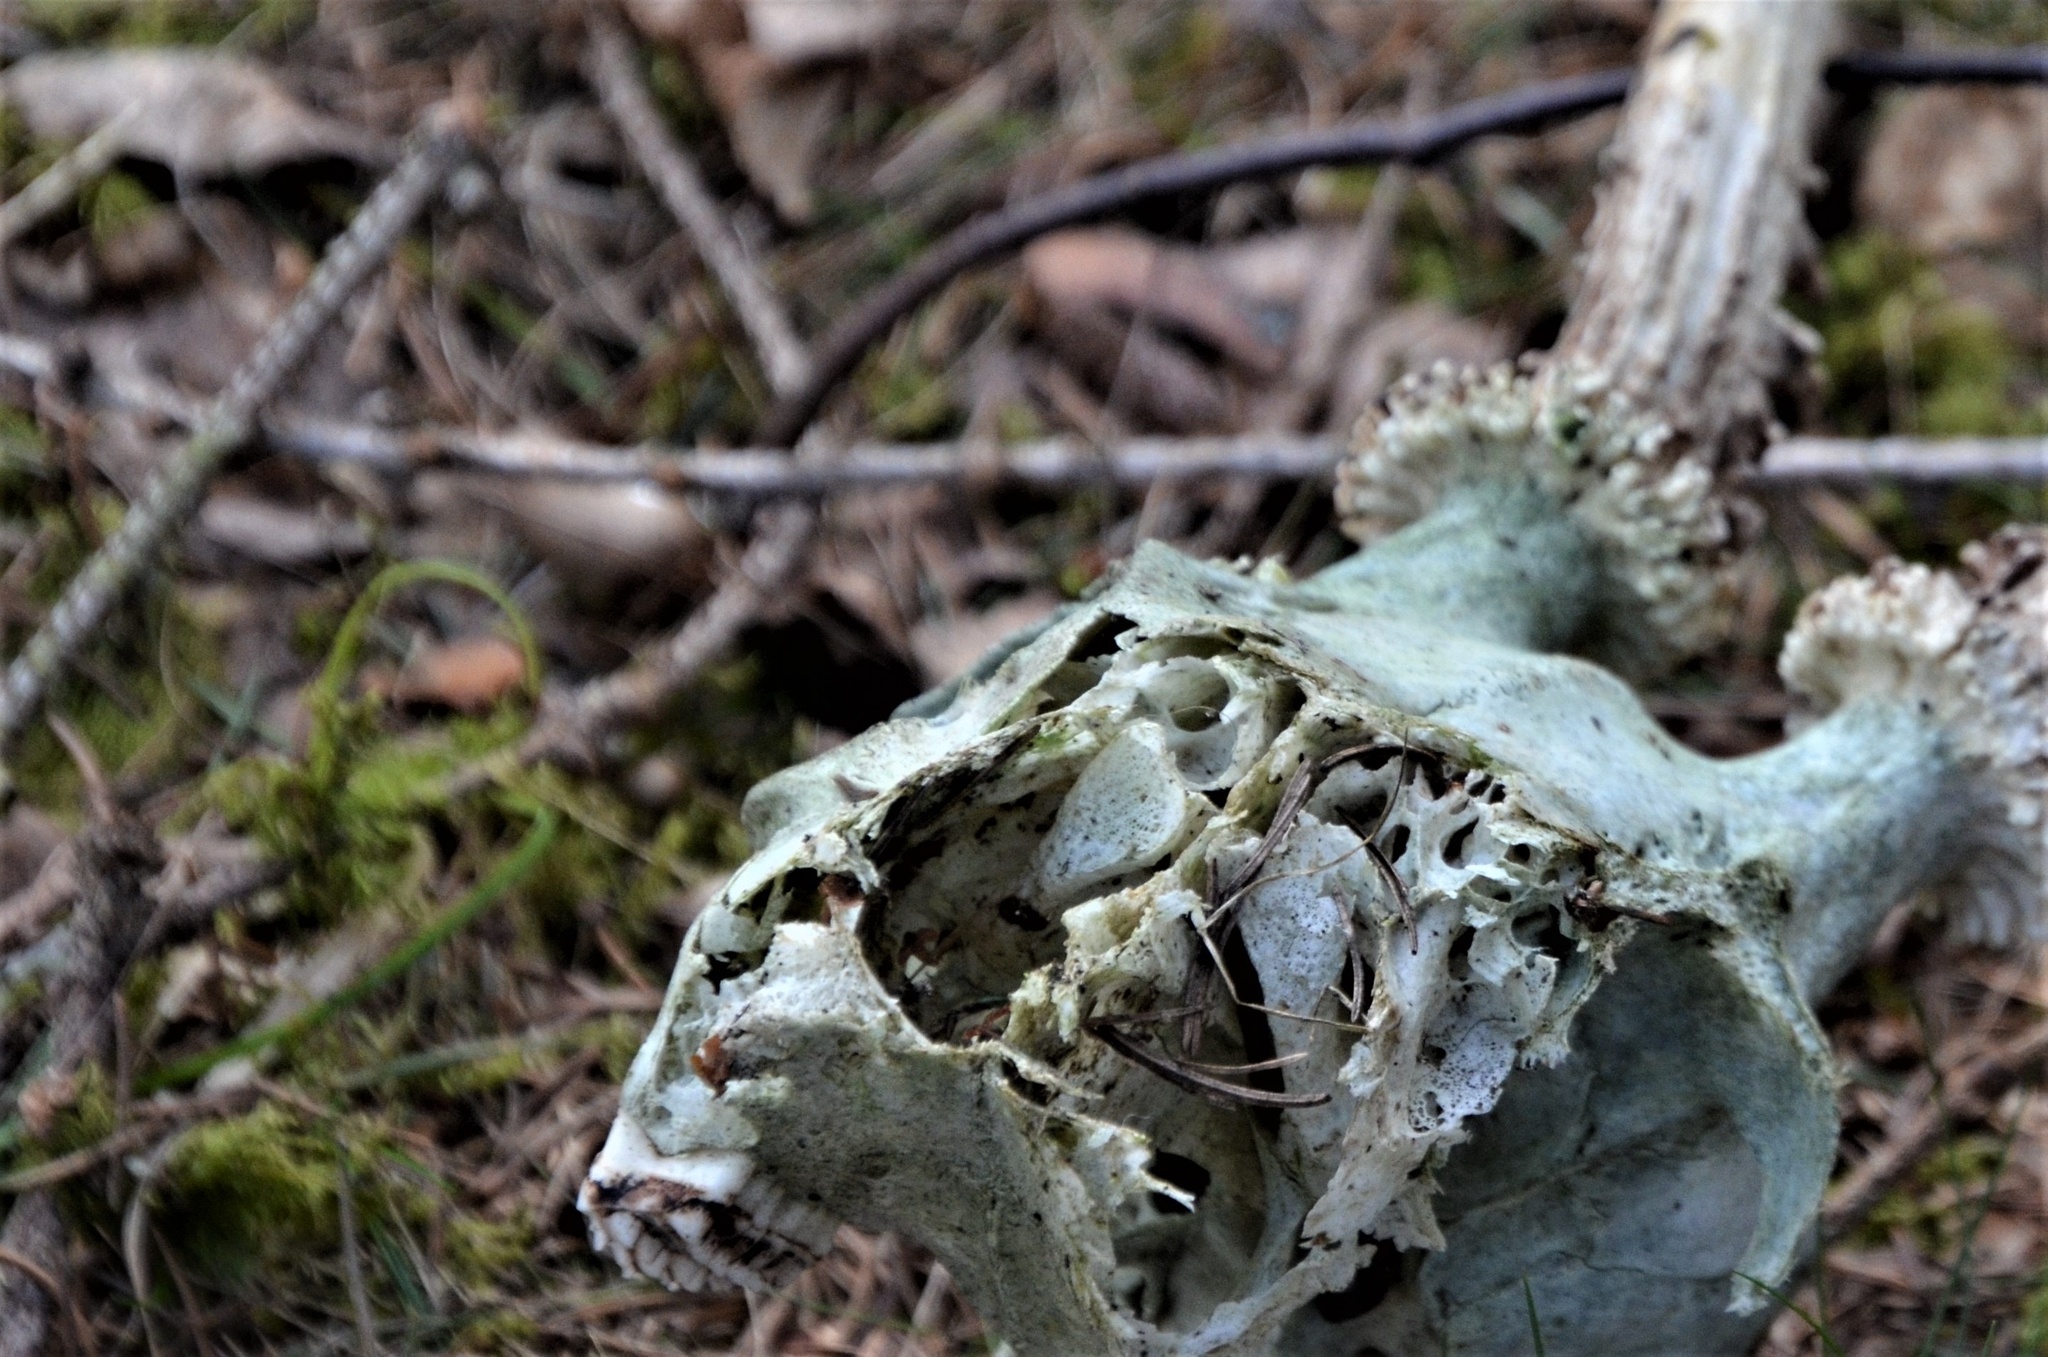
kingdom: Animalia
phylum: Chordata
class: Mammalia
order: Artiodactyla
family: Cervidae
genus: Capreolus
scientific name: Capreolus capreolus
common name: Western roe deer
